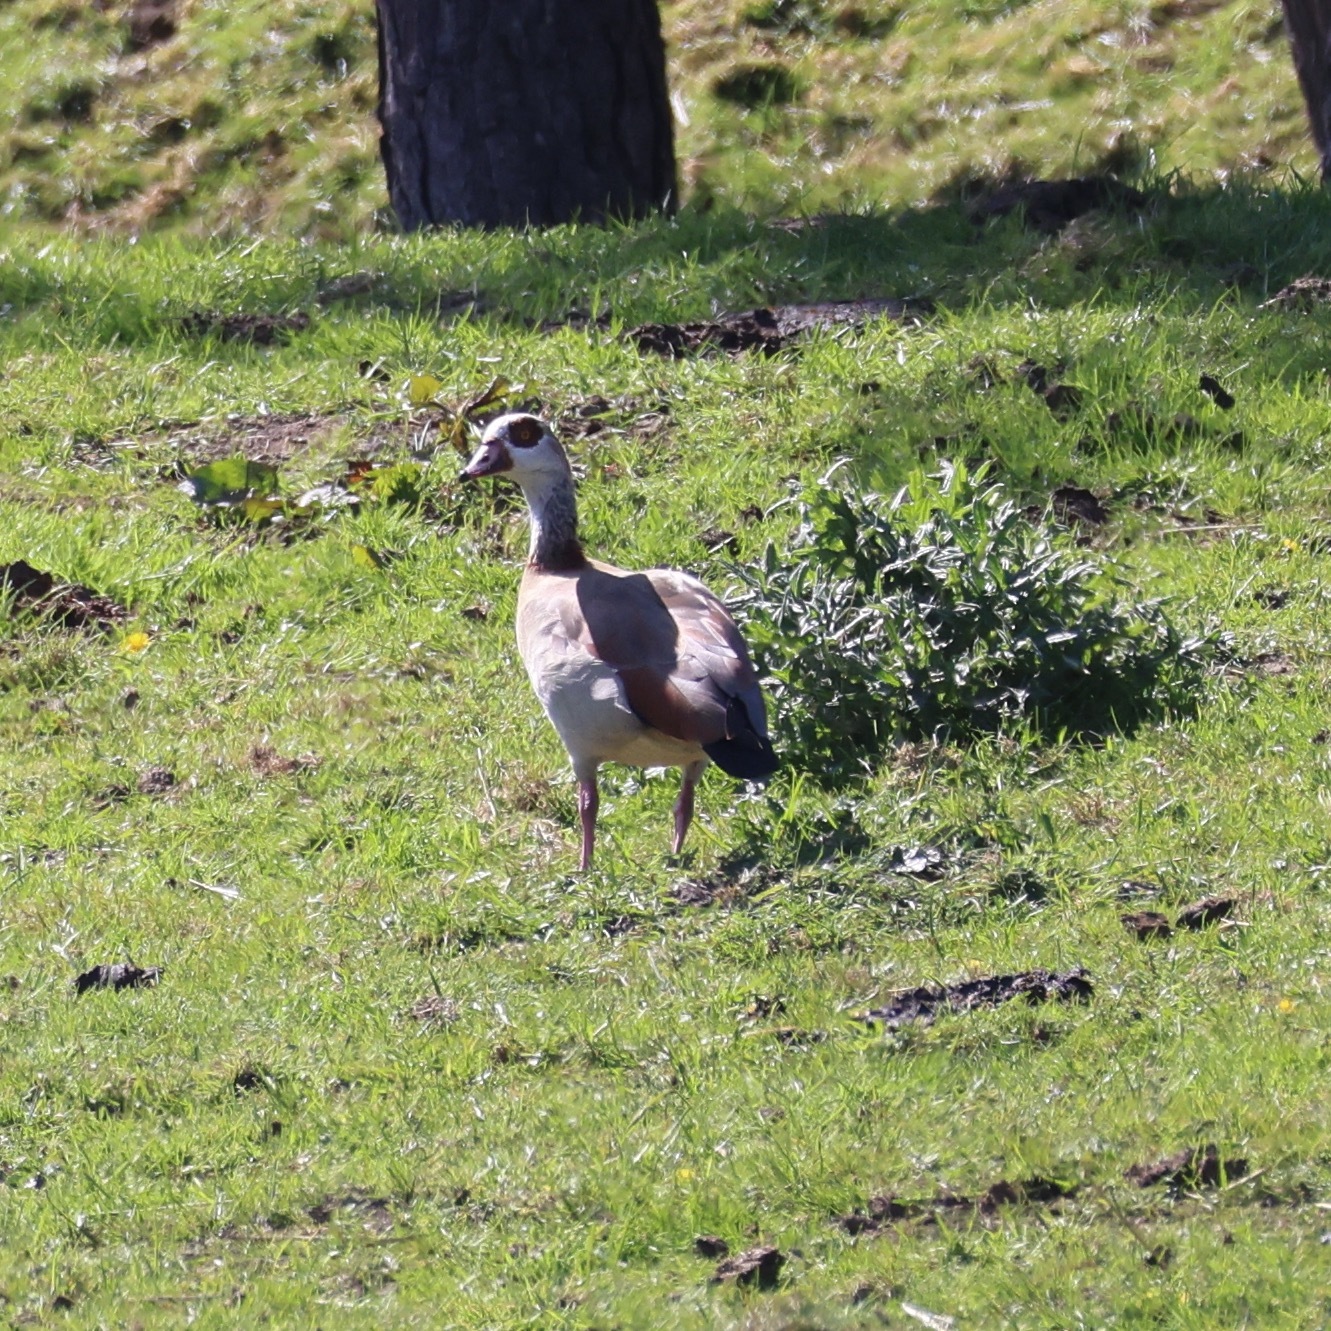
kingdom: Animalia
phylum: Chordata
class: Aves
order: Anseriformes
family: Anatidae
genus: Alopochen
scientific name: Alopochen aegyptiaca
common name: Egyptian goose
